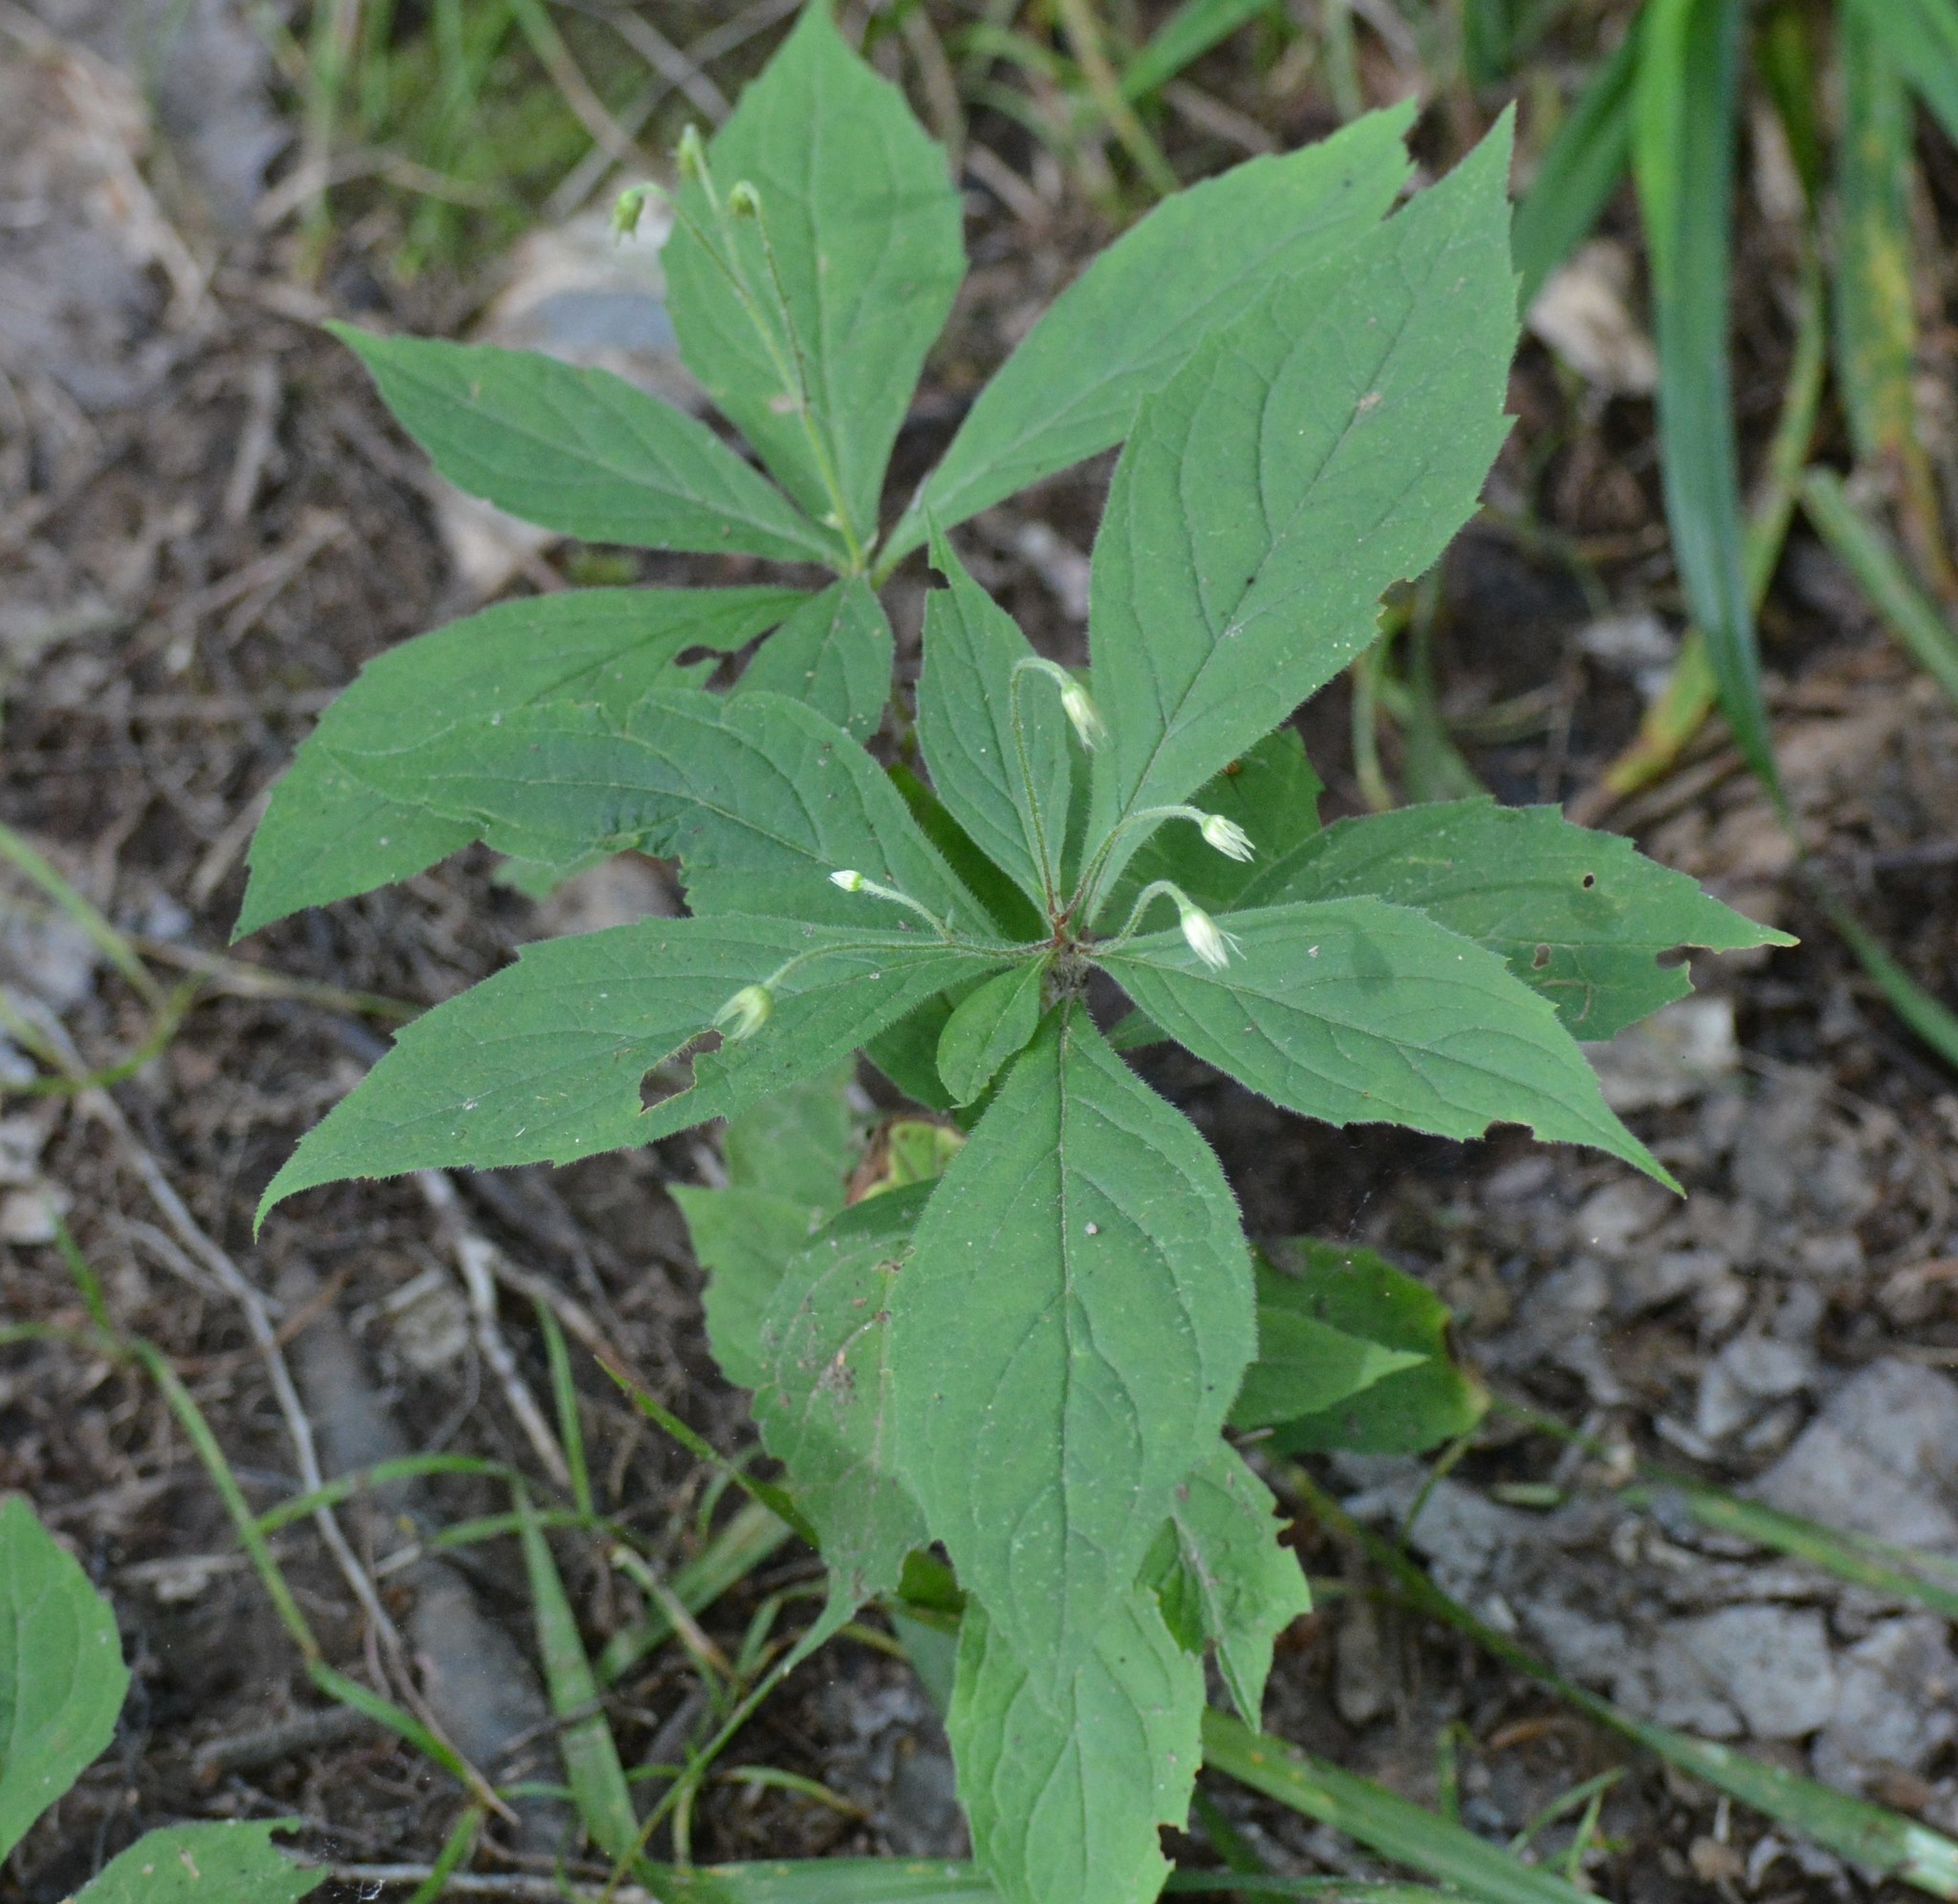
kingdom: Plantae
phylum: Tracheophyta
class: Magnoliopsida
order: Asterales
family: Asteraceae
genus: Oclemena
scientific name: Oclemena acuminata
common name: Mountain aster
